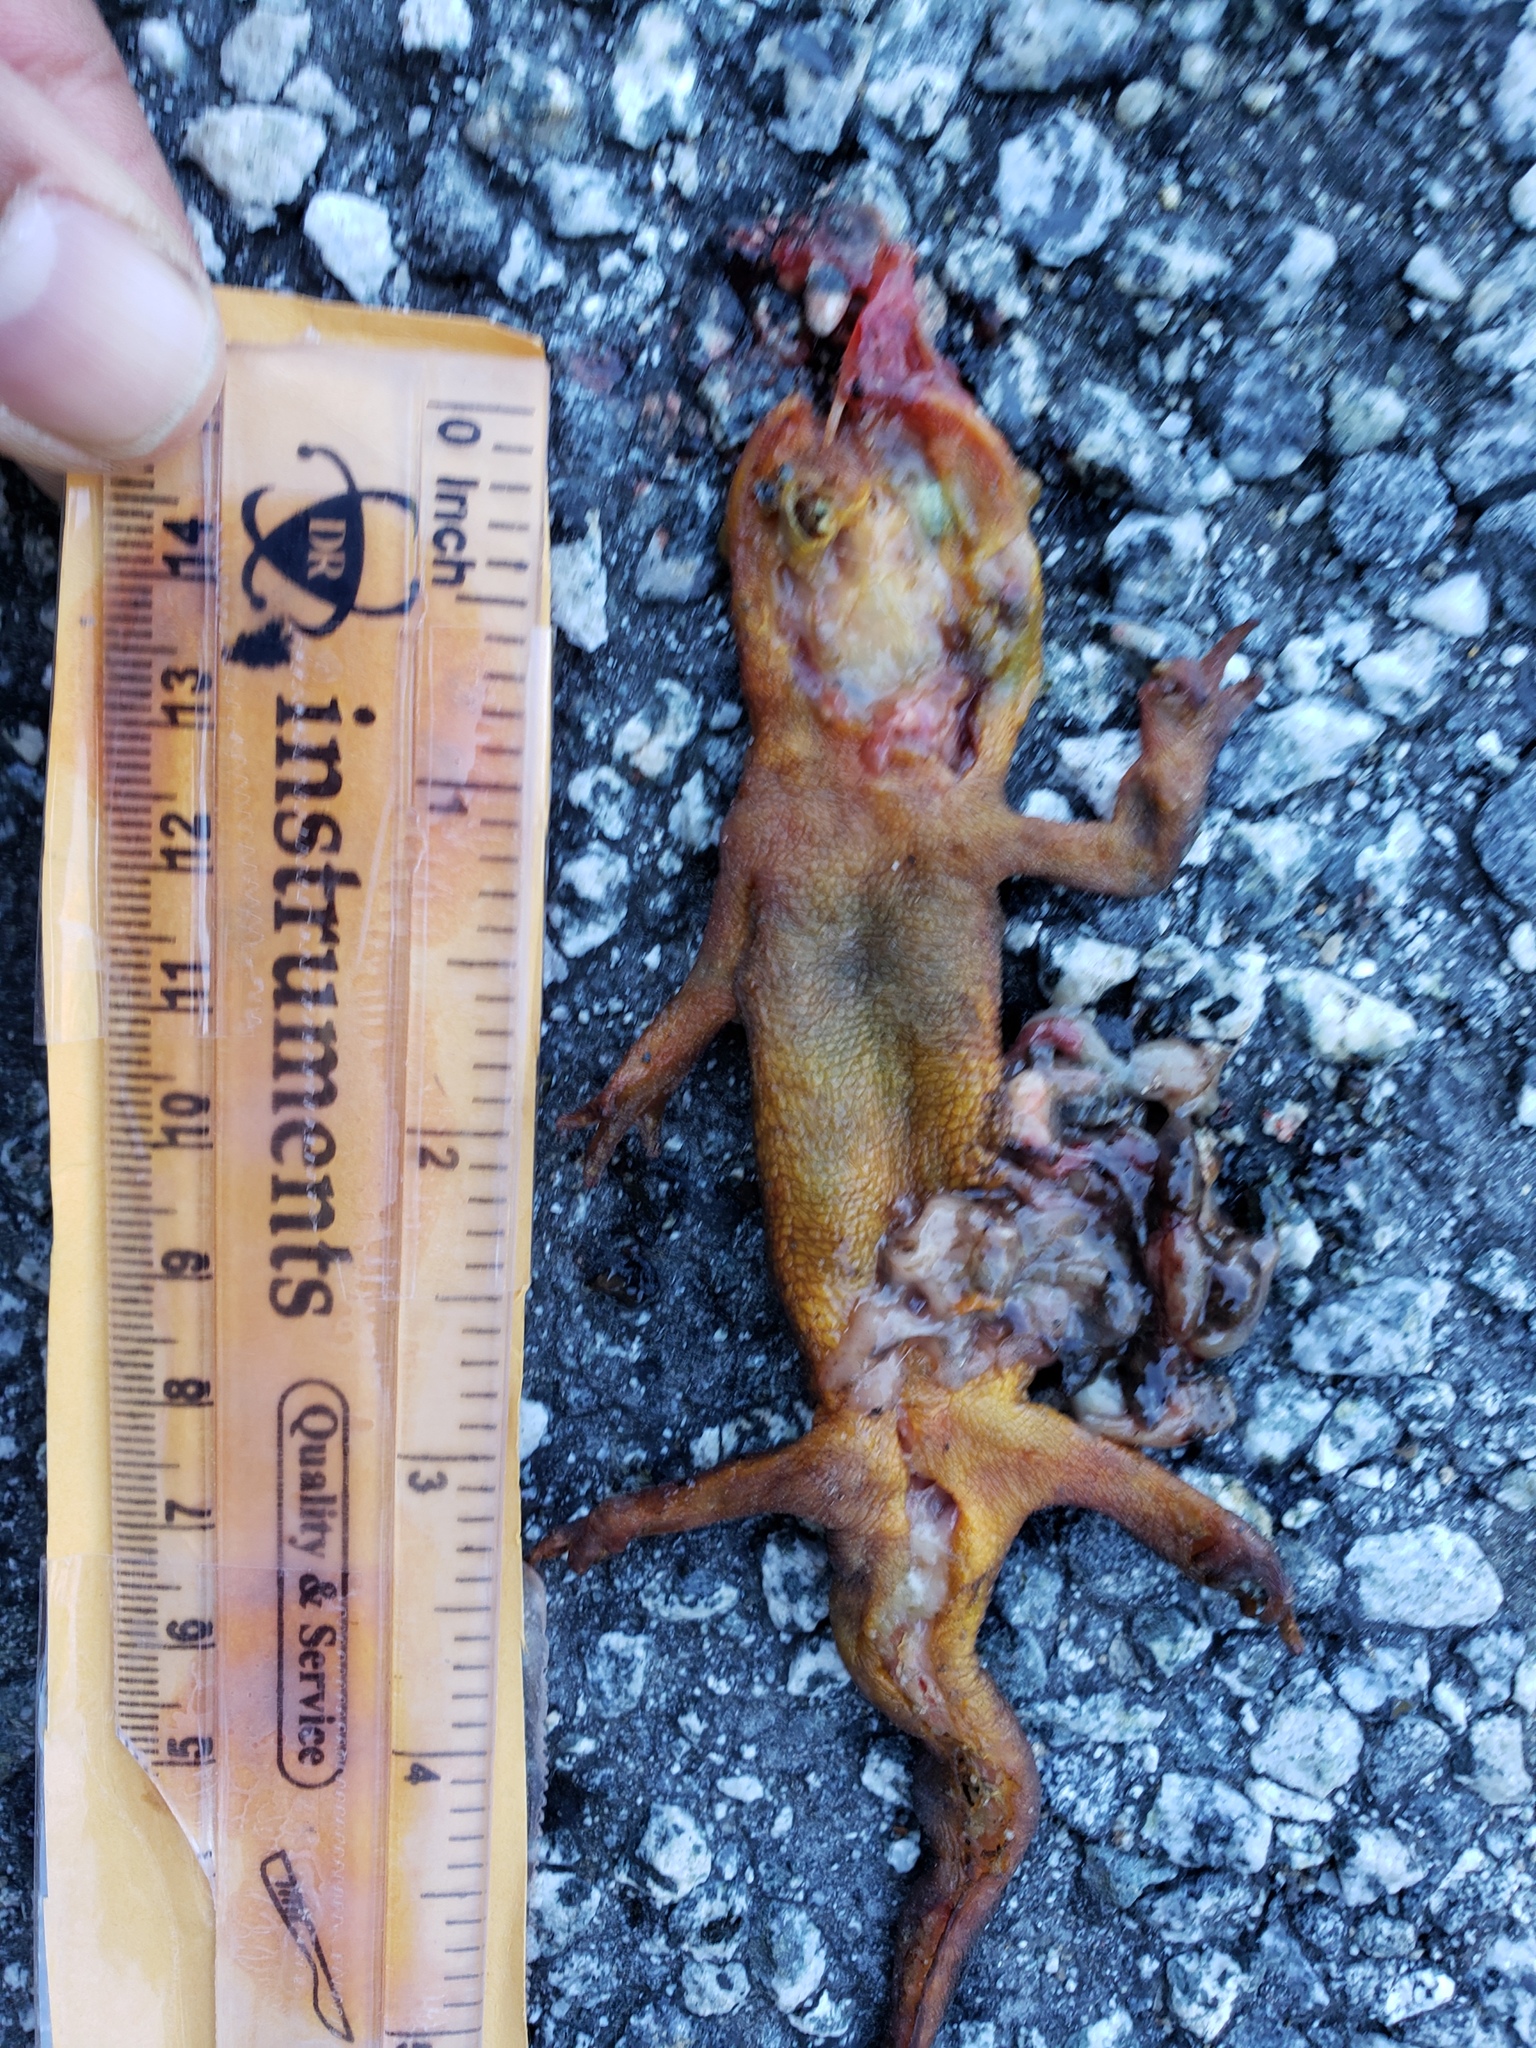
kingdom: Animalia
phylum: Chordata
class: Amphibia
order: Caudata
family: Salamandridae
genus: Taricha
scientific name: Taricha
